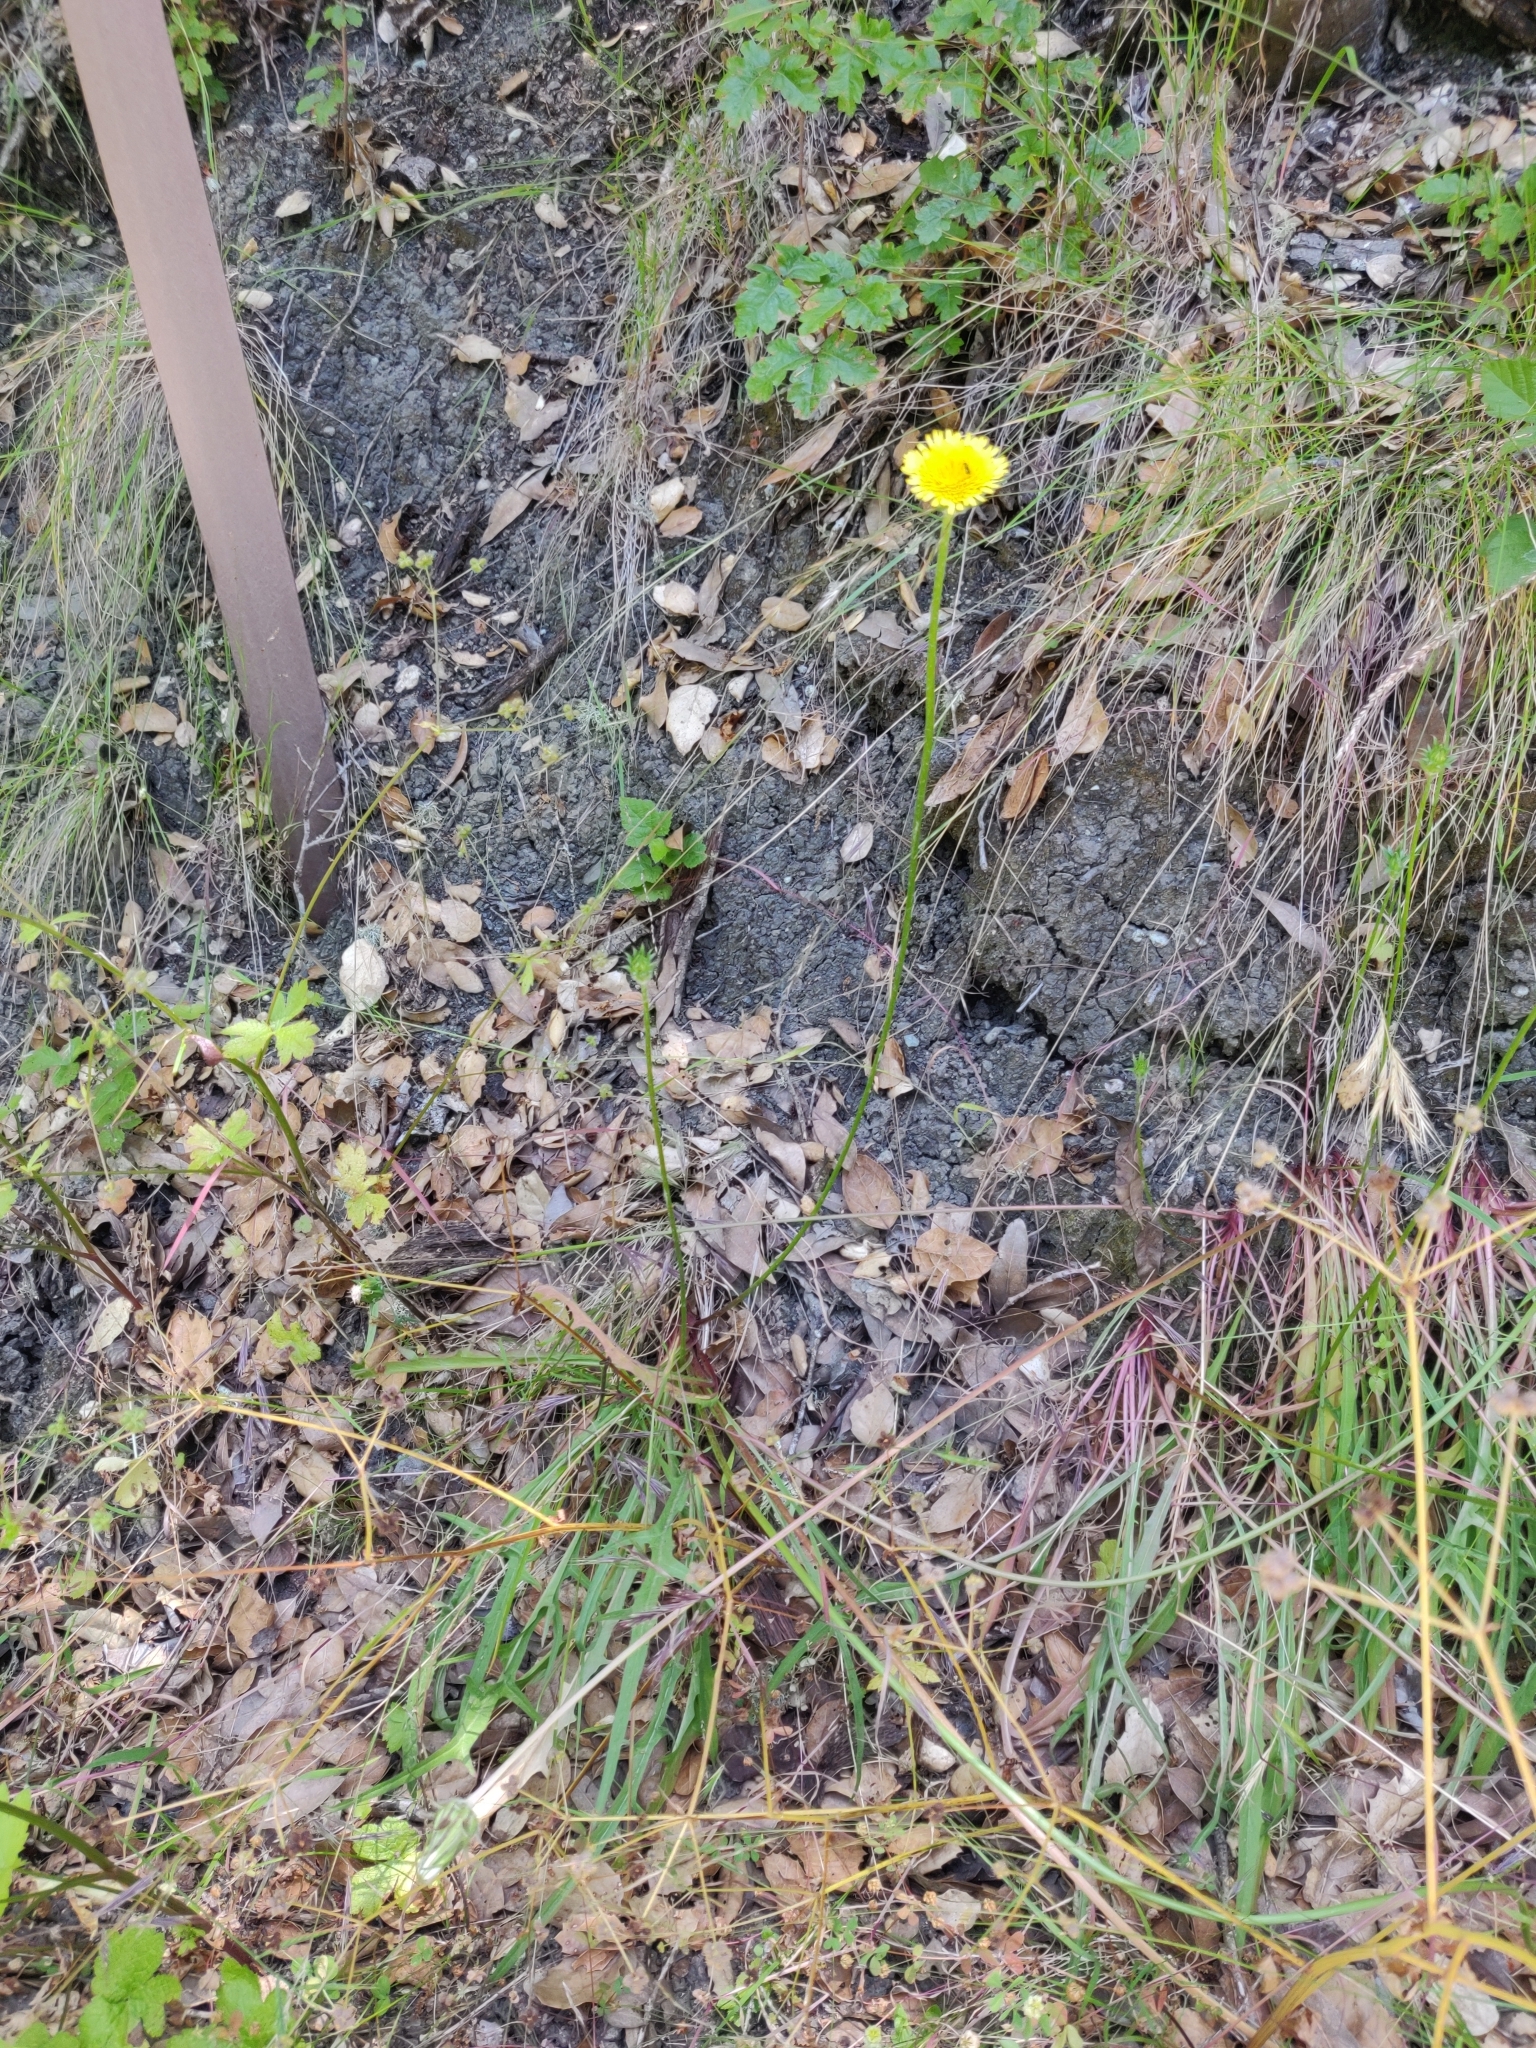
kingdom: Plantae
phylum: Tracheophyta
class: Magnoliopsida
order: Asterales
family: Asteraceae
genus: Agoseris
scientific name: Agoseris grandiflora
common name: Grassland agoseris
